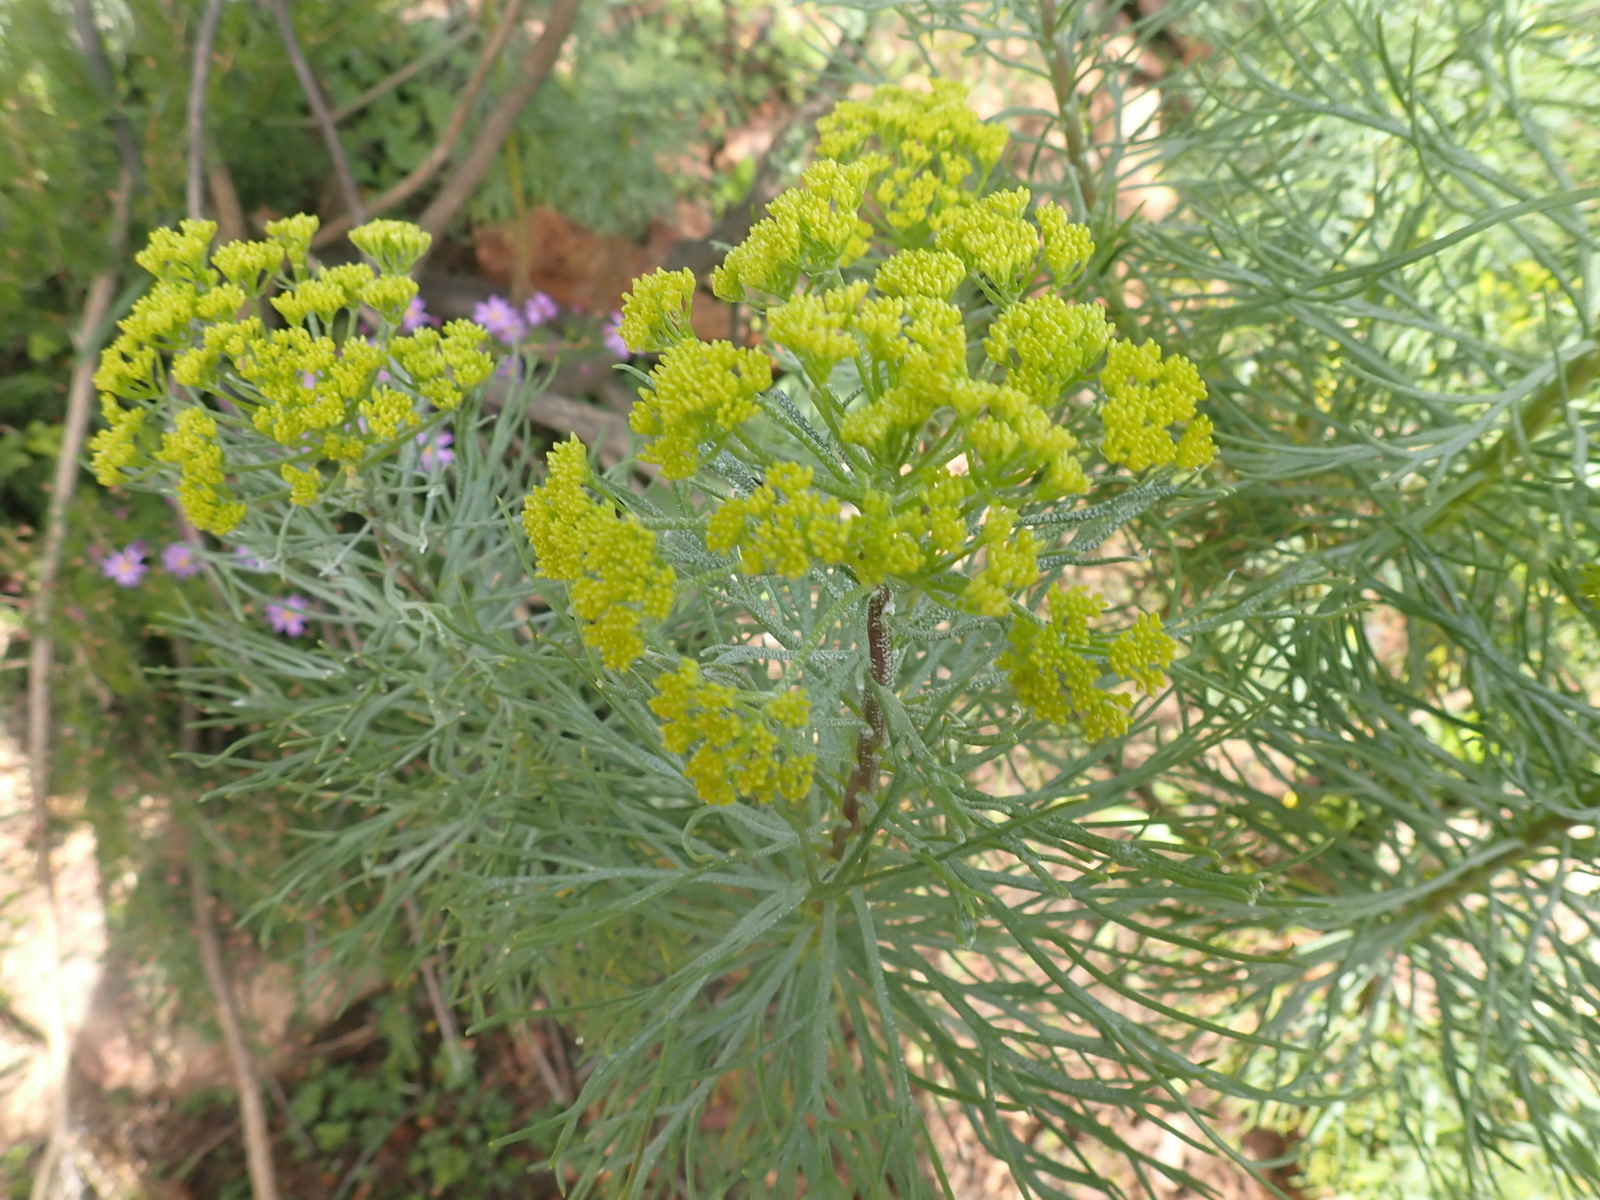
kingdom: Plantae
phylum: Tracheophyta
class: Magnoliopsida
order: Asterales
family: Asteraceae
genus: Hymenolepis
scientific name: Hymenolepis crithmifolia
